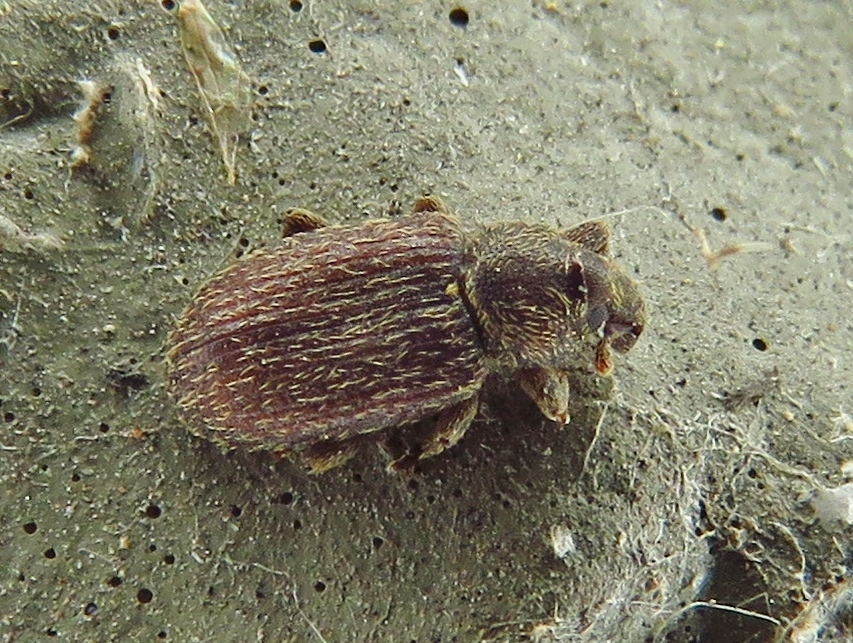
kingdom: Animalia
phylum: Arthropoda
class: Insecta
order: Coleoptera
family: Curculionidae
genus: Hormops
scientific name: Hormops abducens
